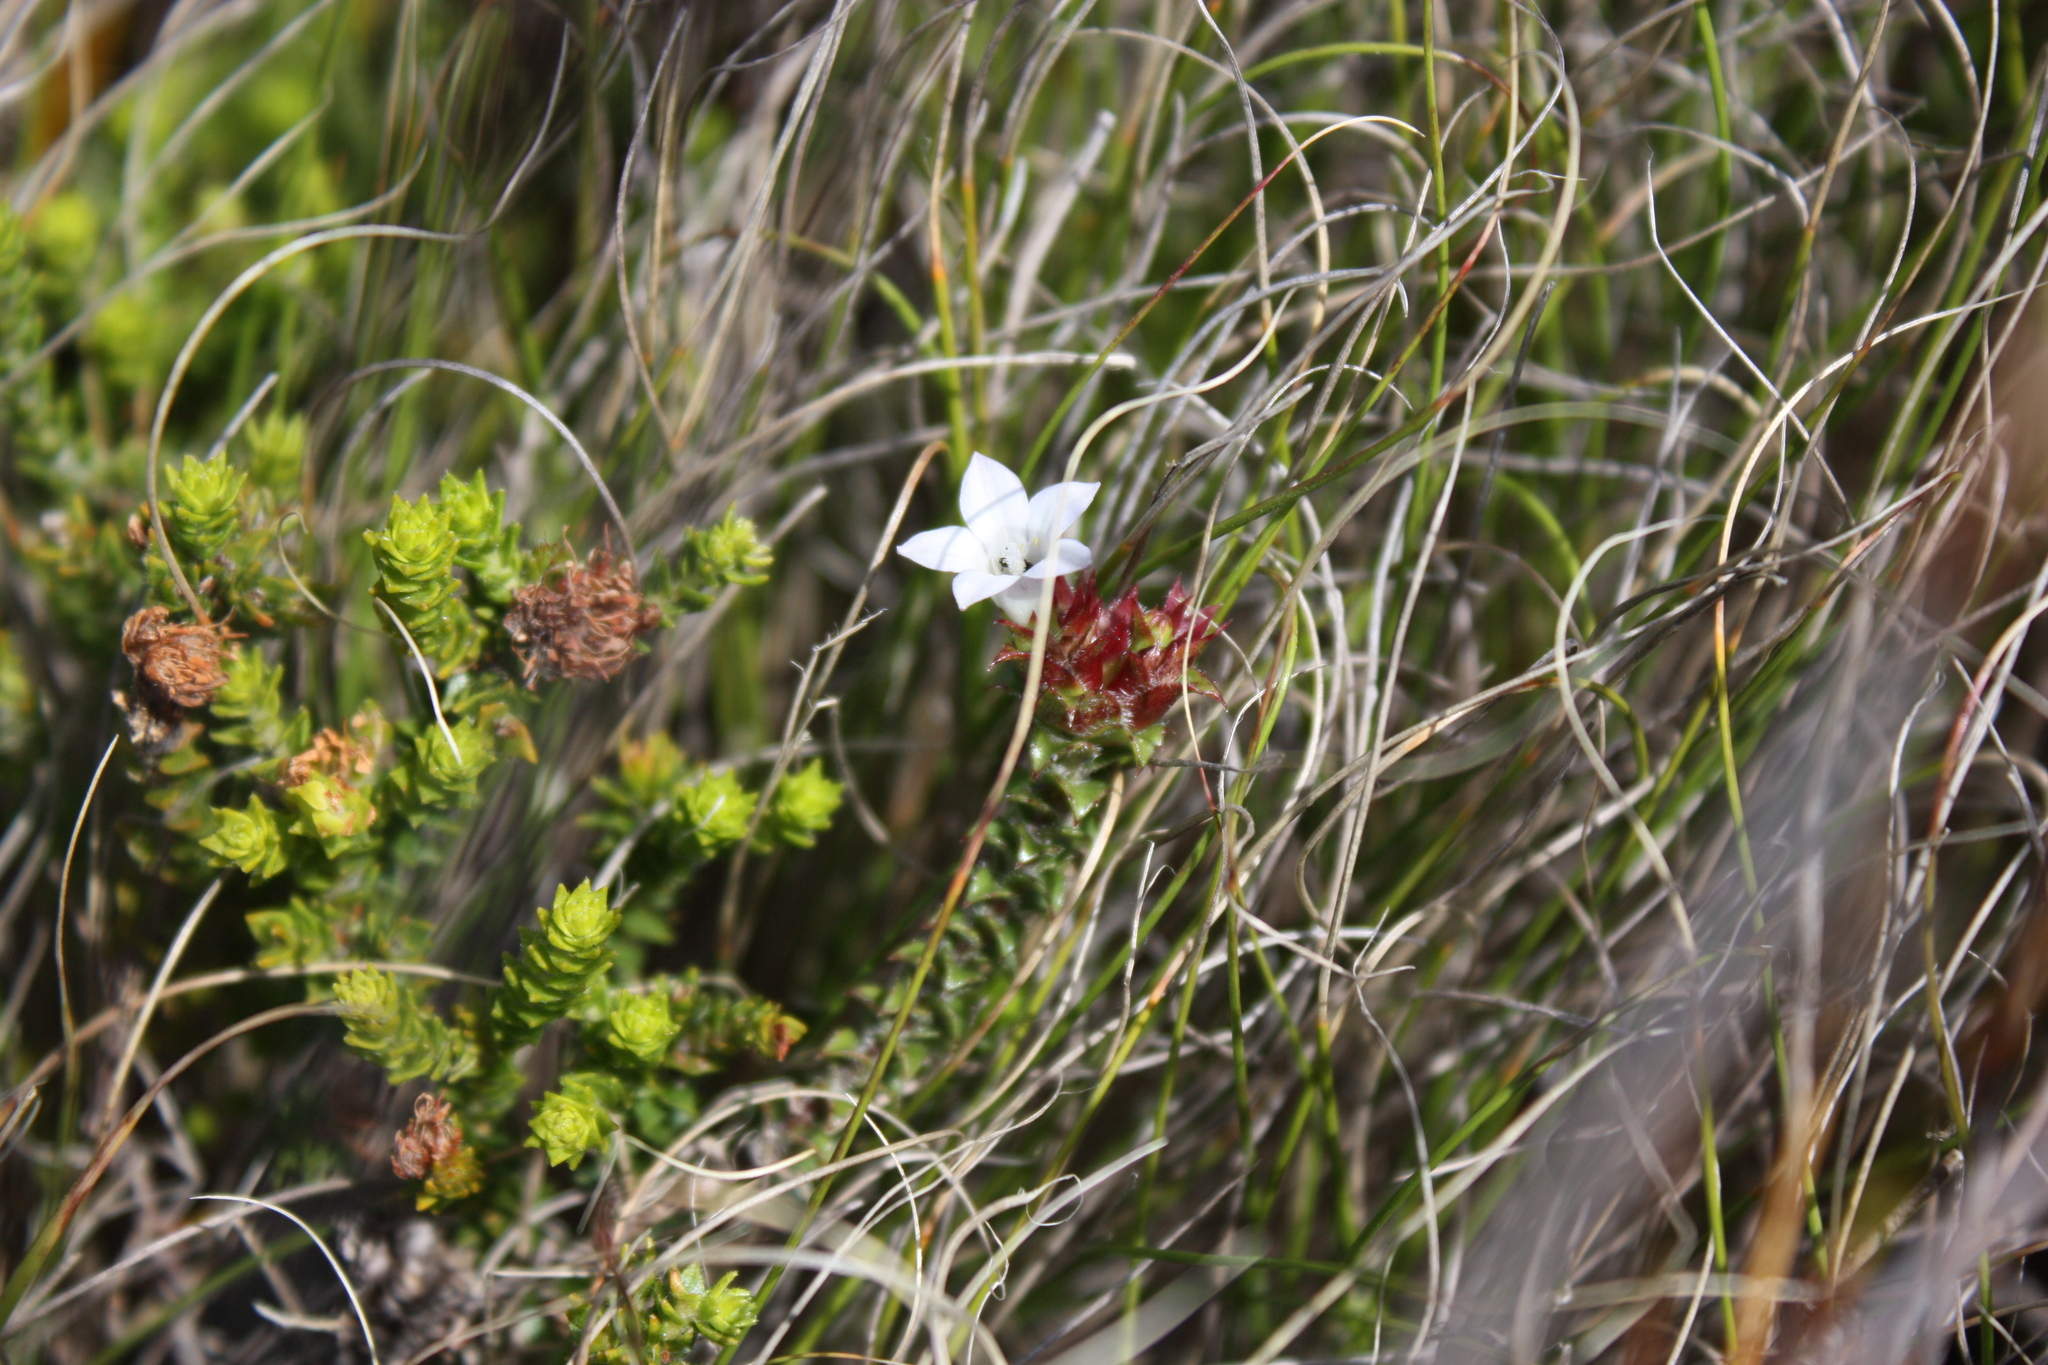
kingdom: Plantae
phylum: Tracheophyta
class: Magnoliopsida
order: Asterales
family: Campanulaceae
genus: Roella
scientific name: Roella amplexicaulis
